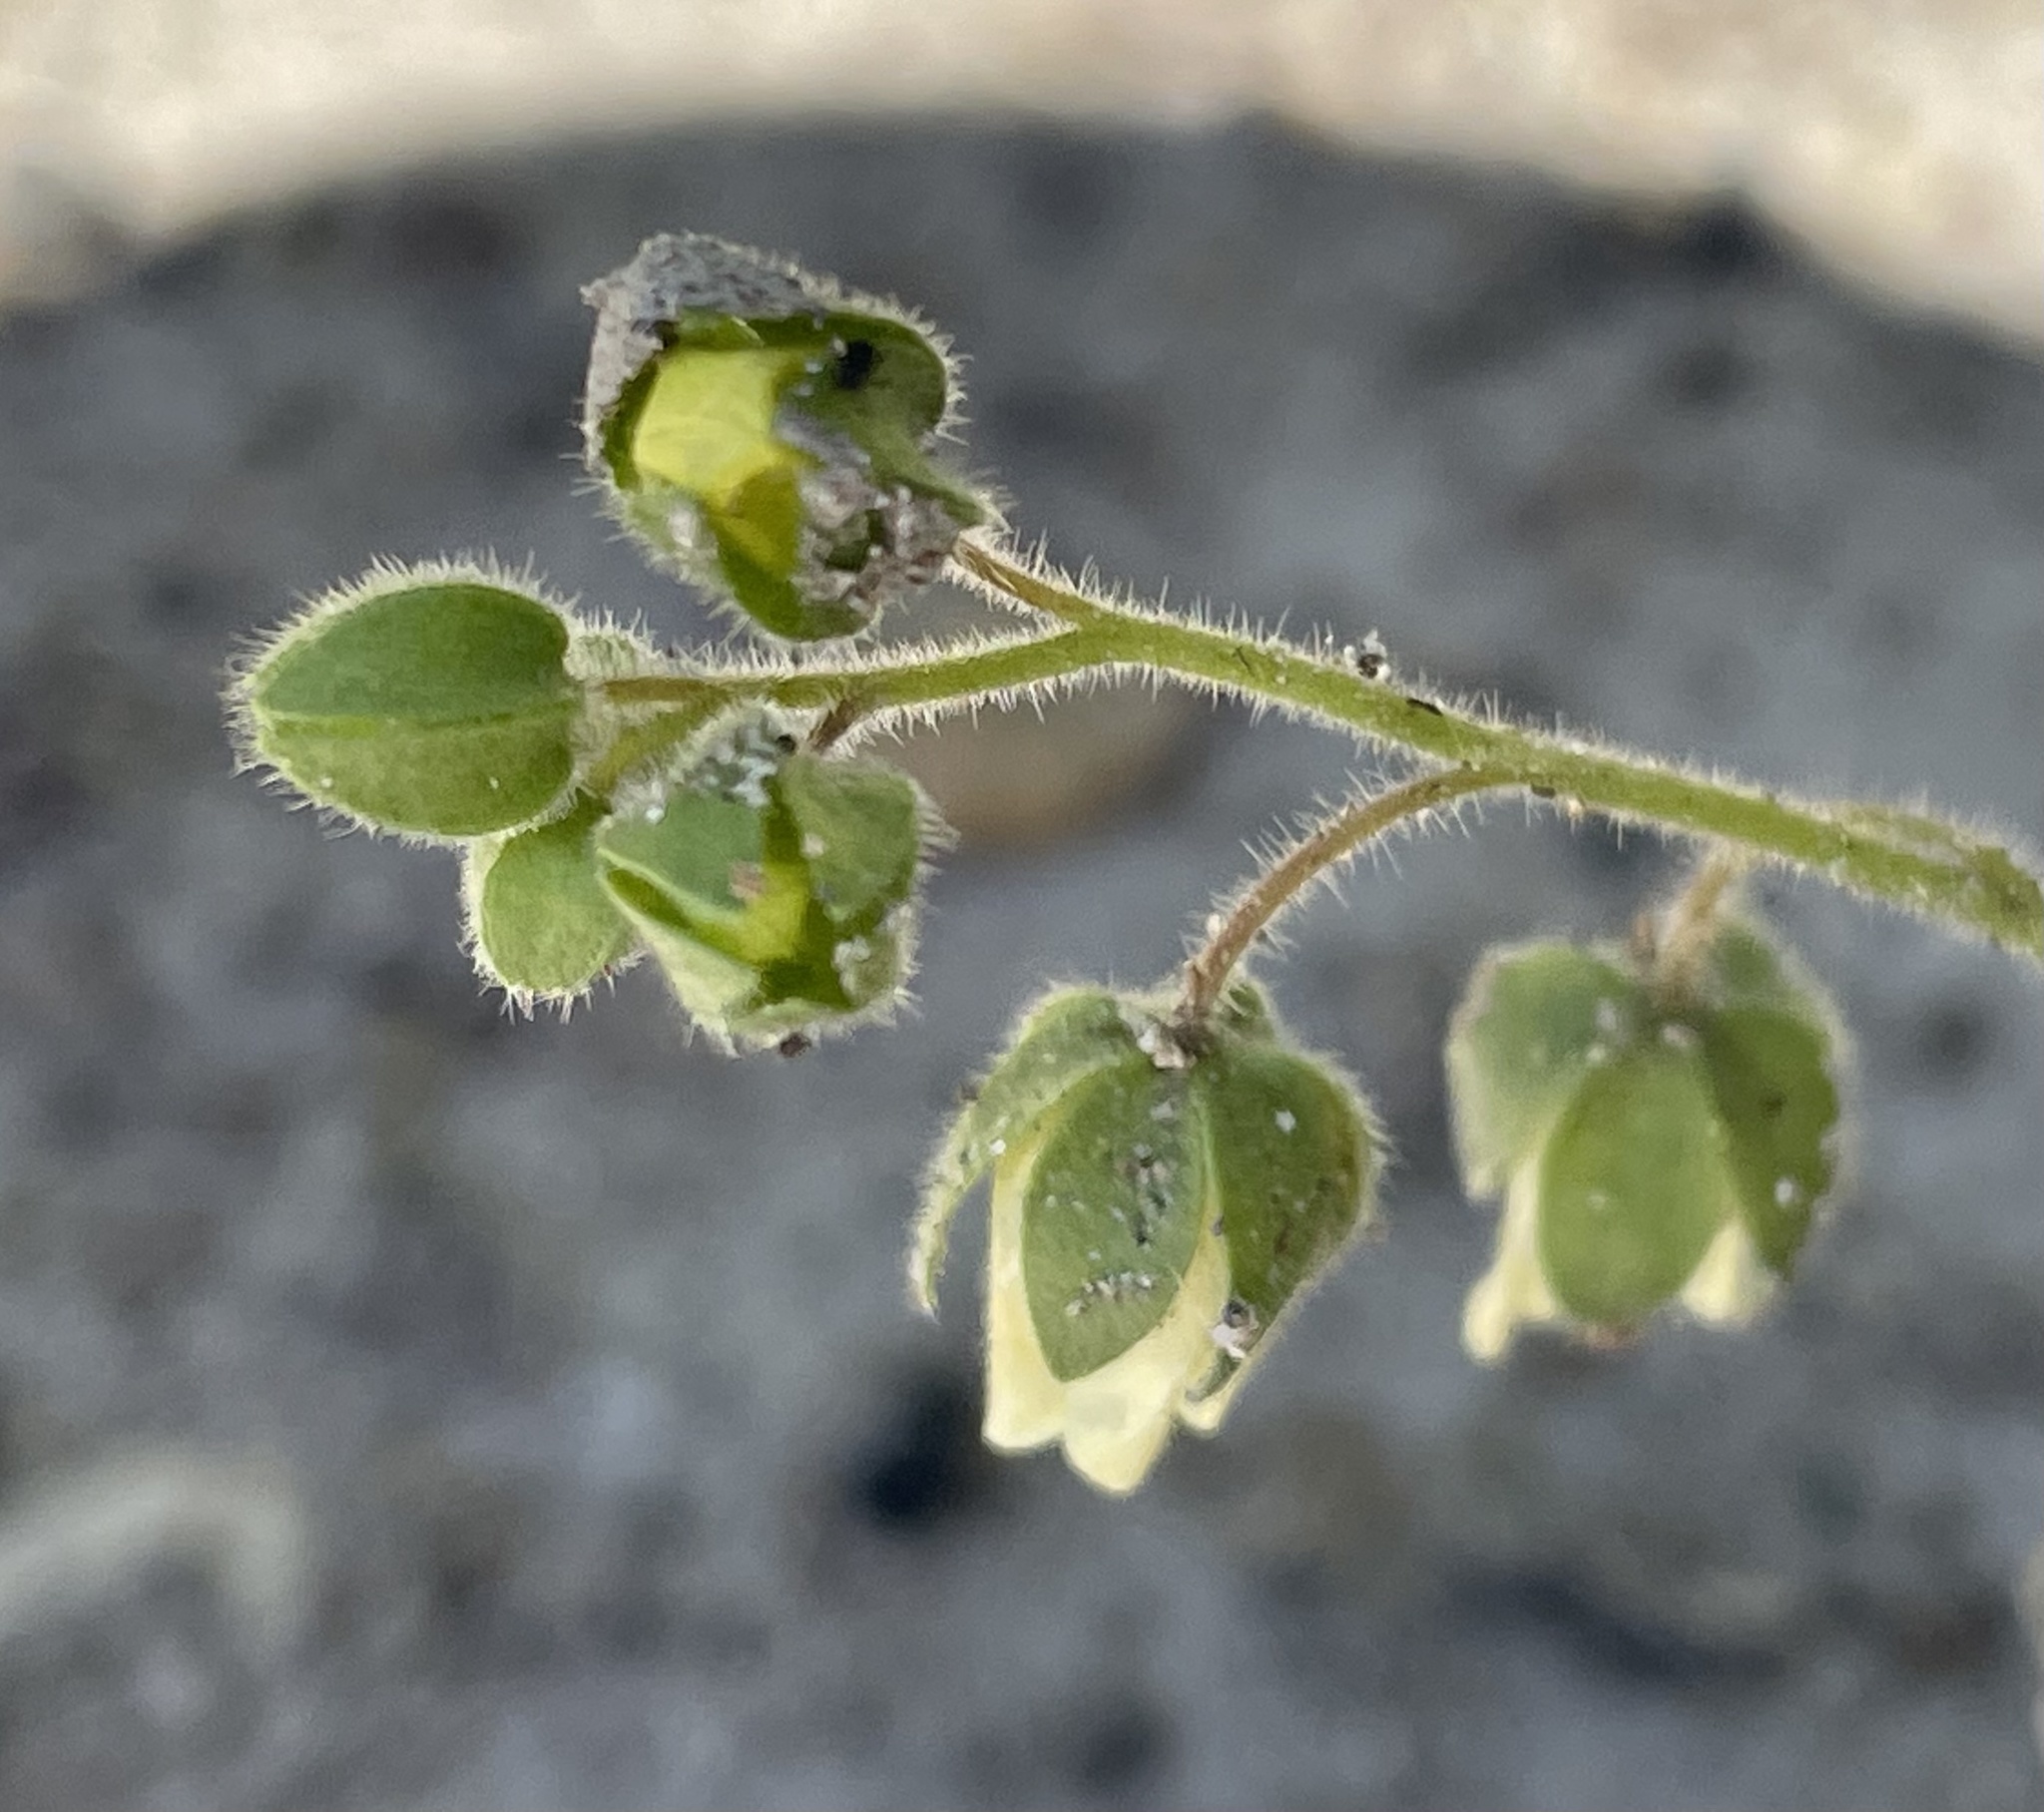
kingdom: Plantae
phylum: Tracheophyta
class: Magnoliopsida
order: Boraginales
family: Hydrophyllaceae
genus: Emmenanthe
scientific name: Emmenanthe penduliflora
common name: Whispering-bells
